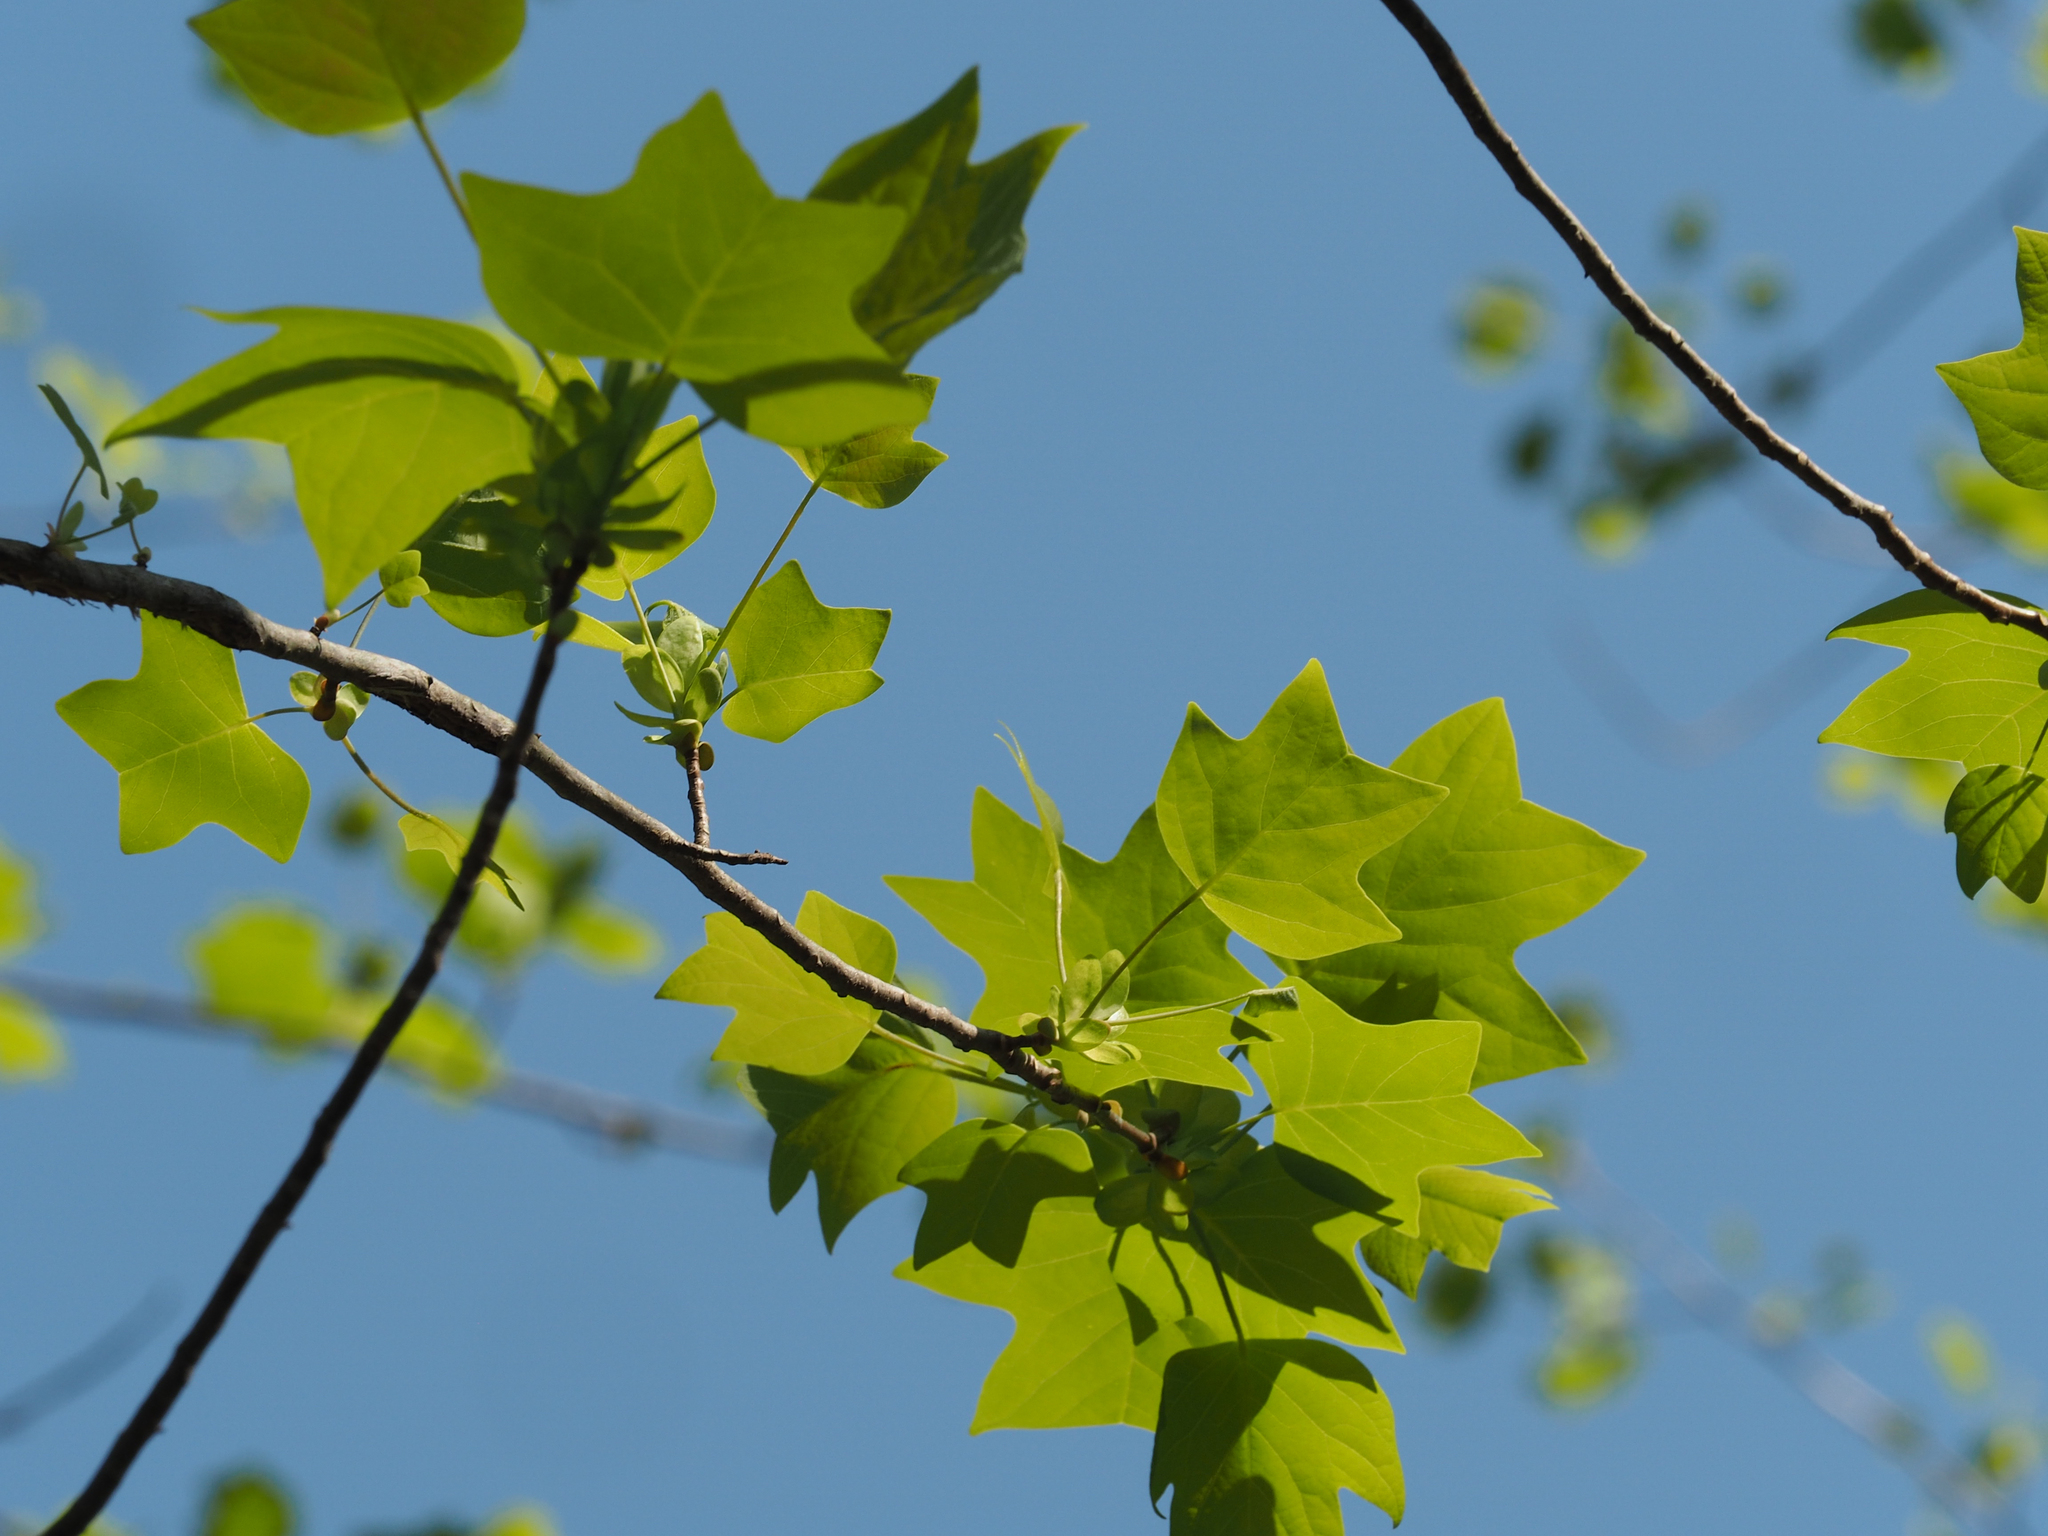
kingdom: Plantae
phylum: Tracheophyta
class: Magnoliopsida
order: Magnoliales
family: Magnoliaceae
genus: Liriodendron
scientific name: Liriodendron tulipifera
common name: Tulip tree
